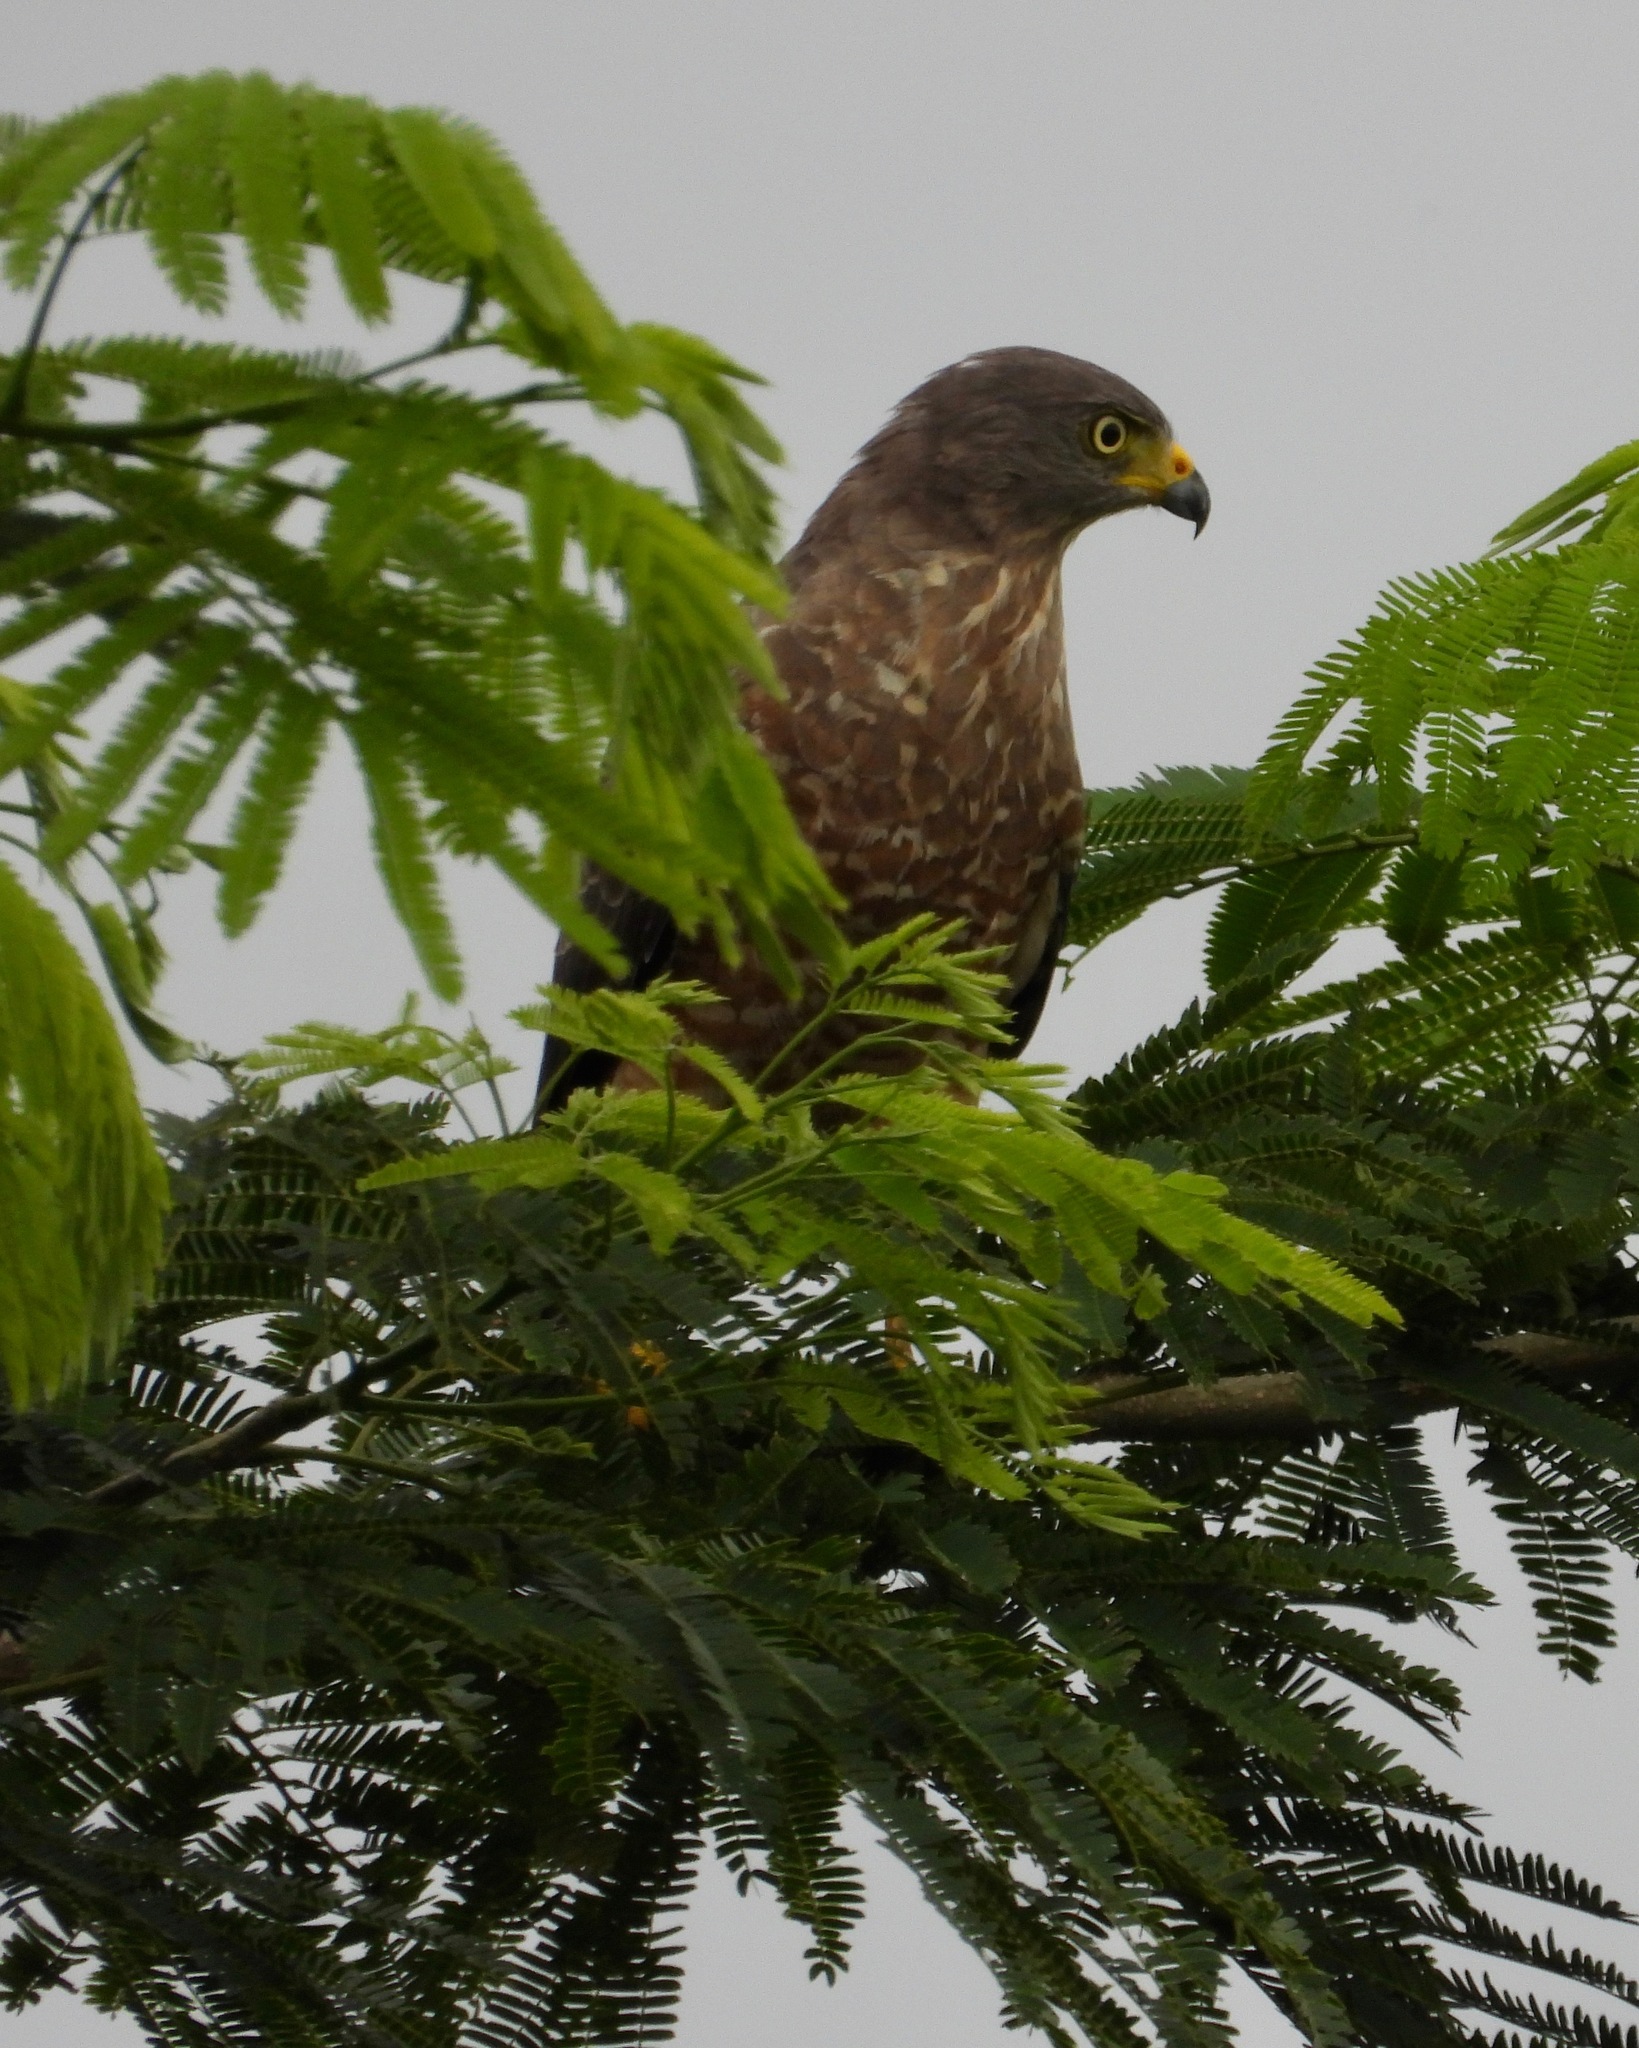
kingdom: Animalia
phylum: Chordata
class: Aves
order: Accipitriformes
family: Accipitridae
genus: Rupornis
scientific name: Rupornis magnirostris
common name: Roadside hawk
